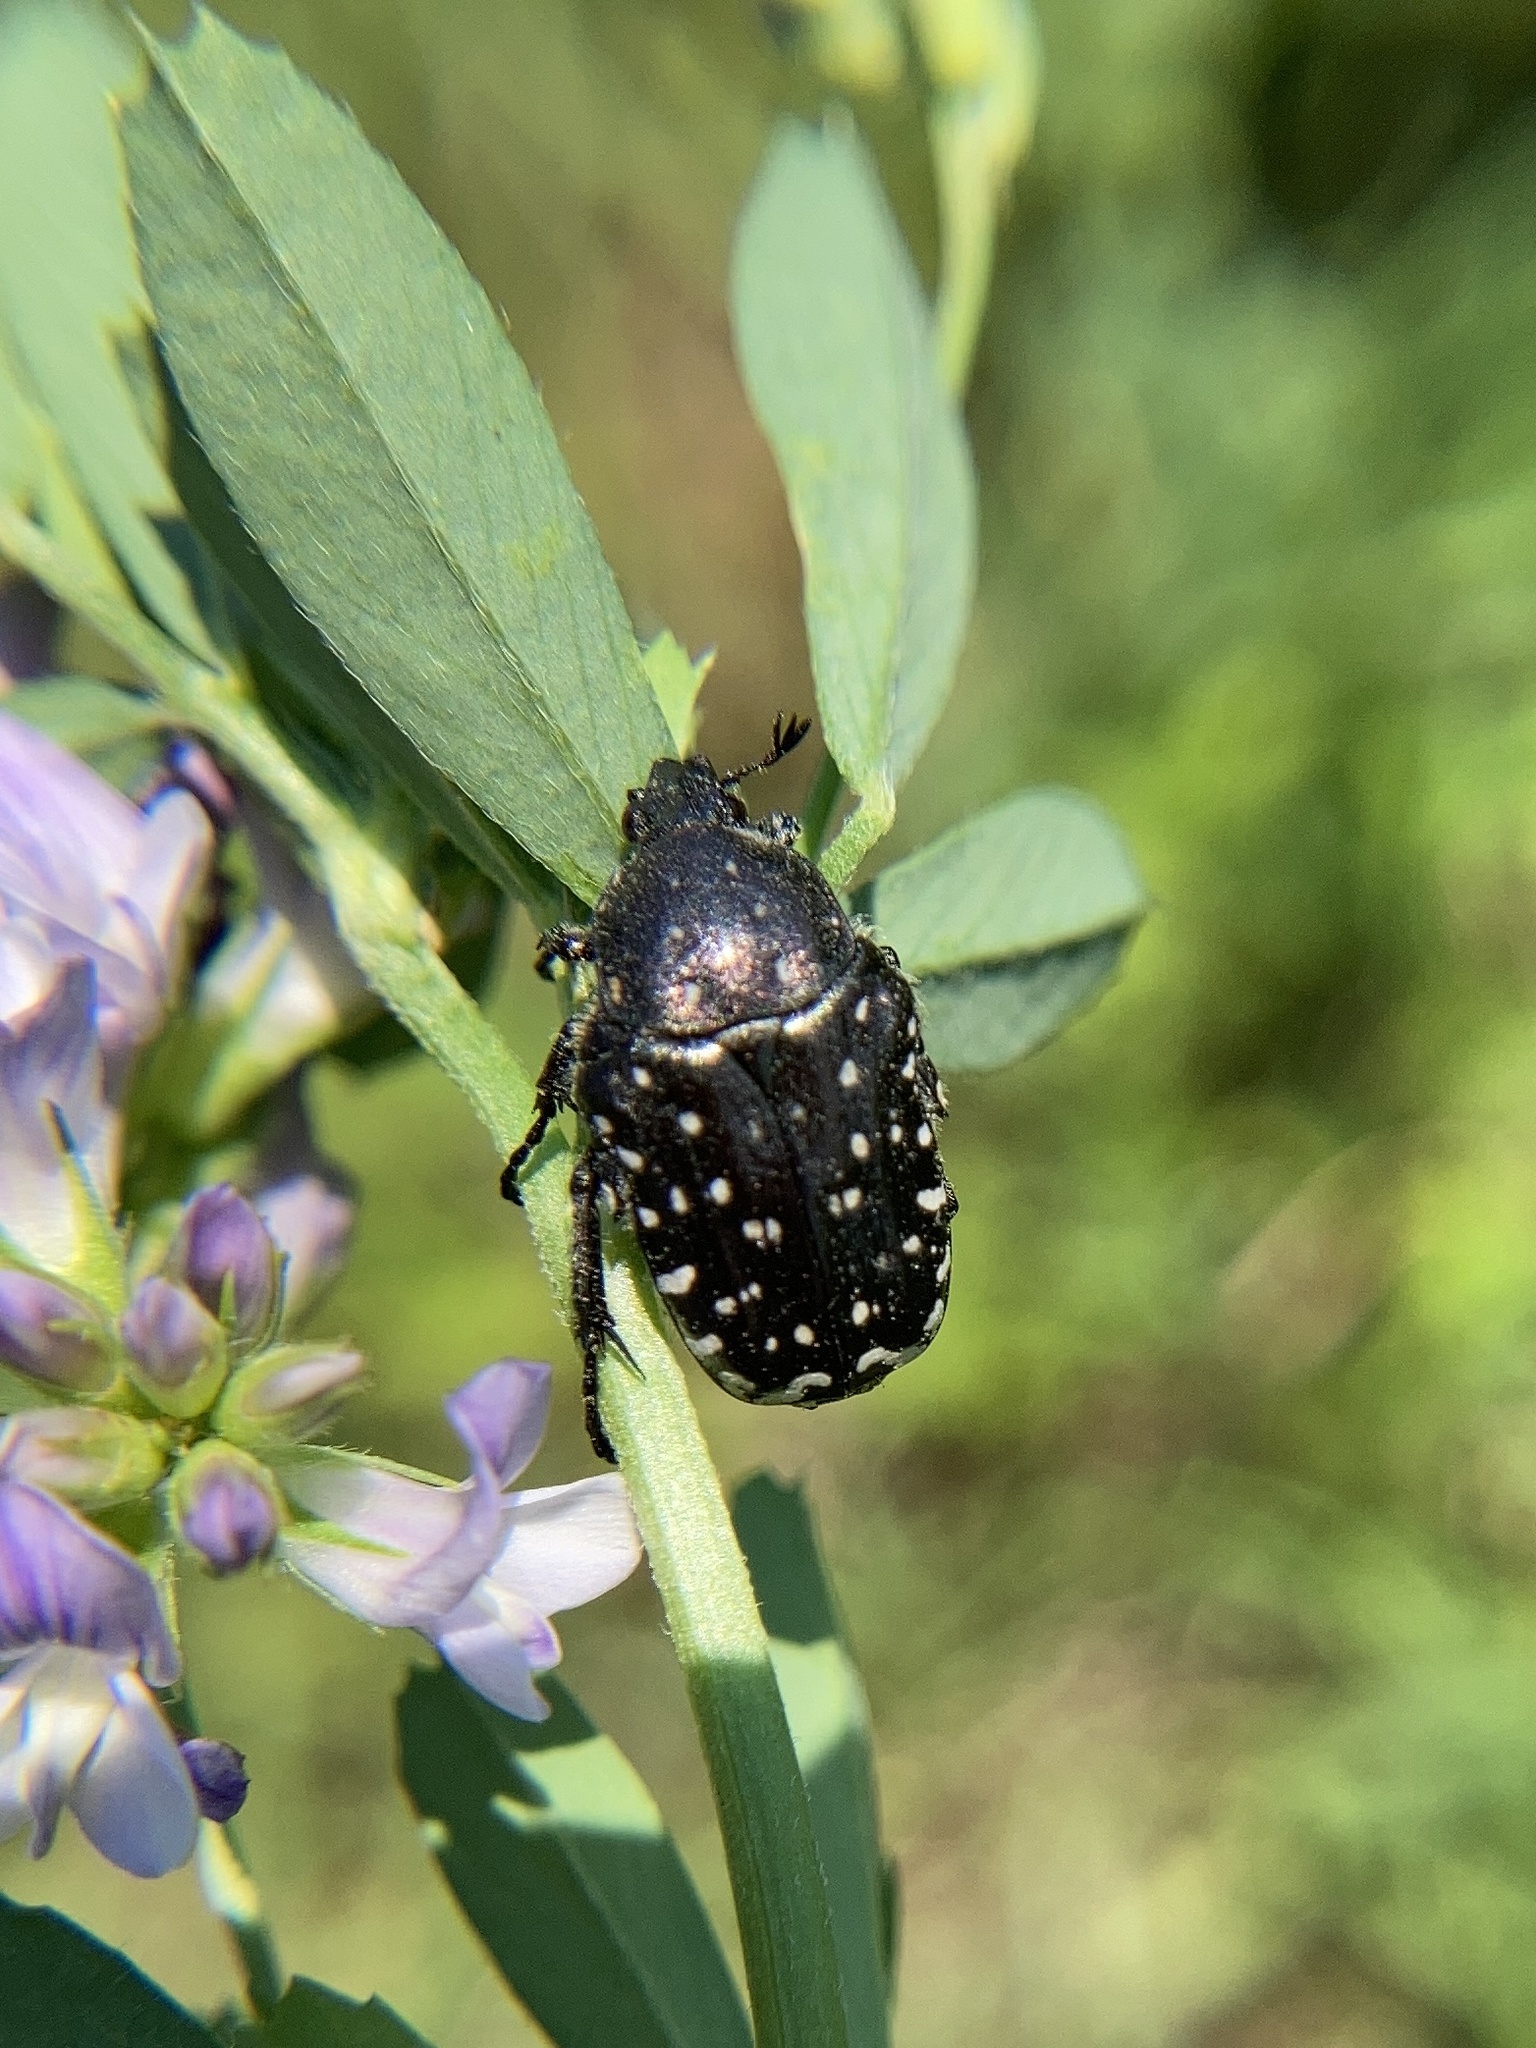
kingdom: Animalia
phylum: Arthropoda
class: Insecta
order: Coleoptera
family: Scarabaeidae
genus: Oxythyrea
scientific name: Oxythyrea funesta
